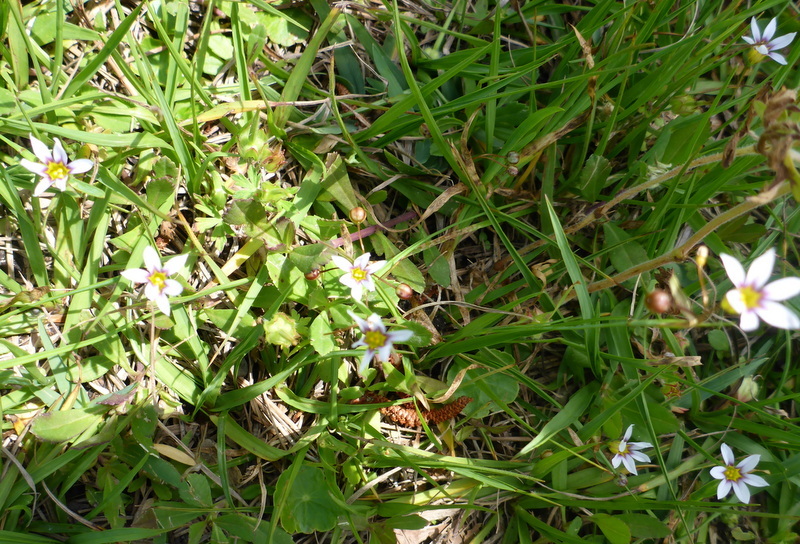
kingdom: Plantae
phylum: Tracheophyta
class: Liliopsida
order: Asparagales
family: Iridaceae
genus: Sisyrinchium
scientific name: Sisyrinchium micranthum
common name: Bermuda pigroot
